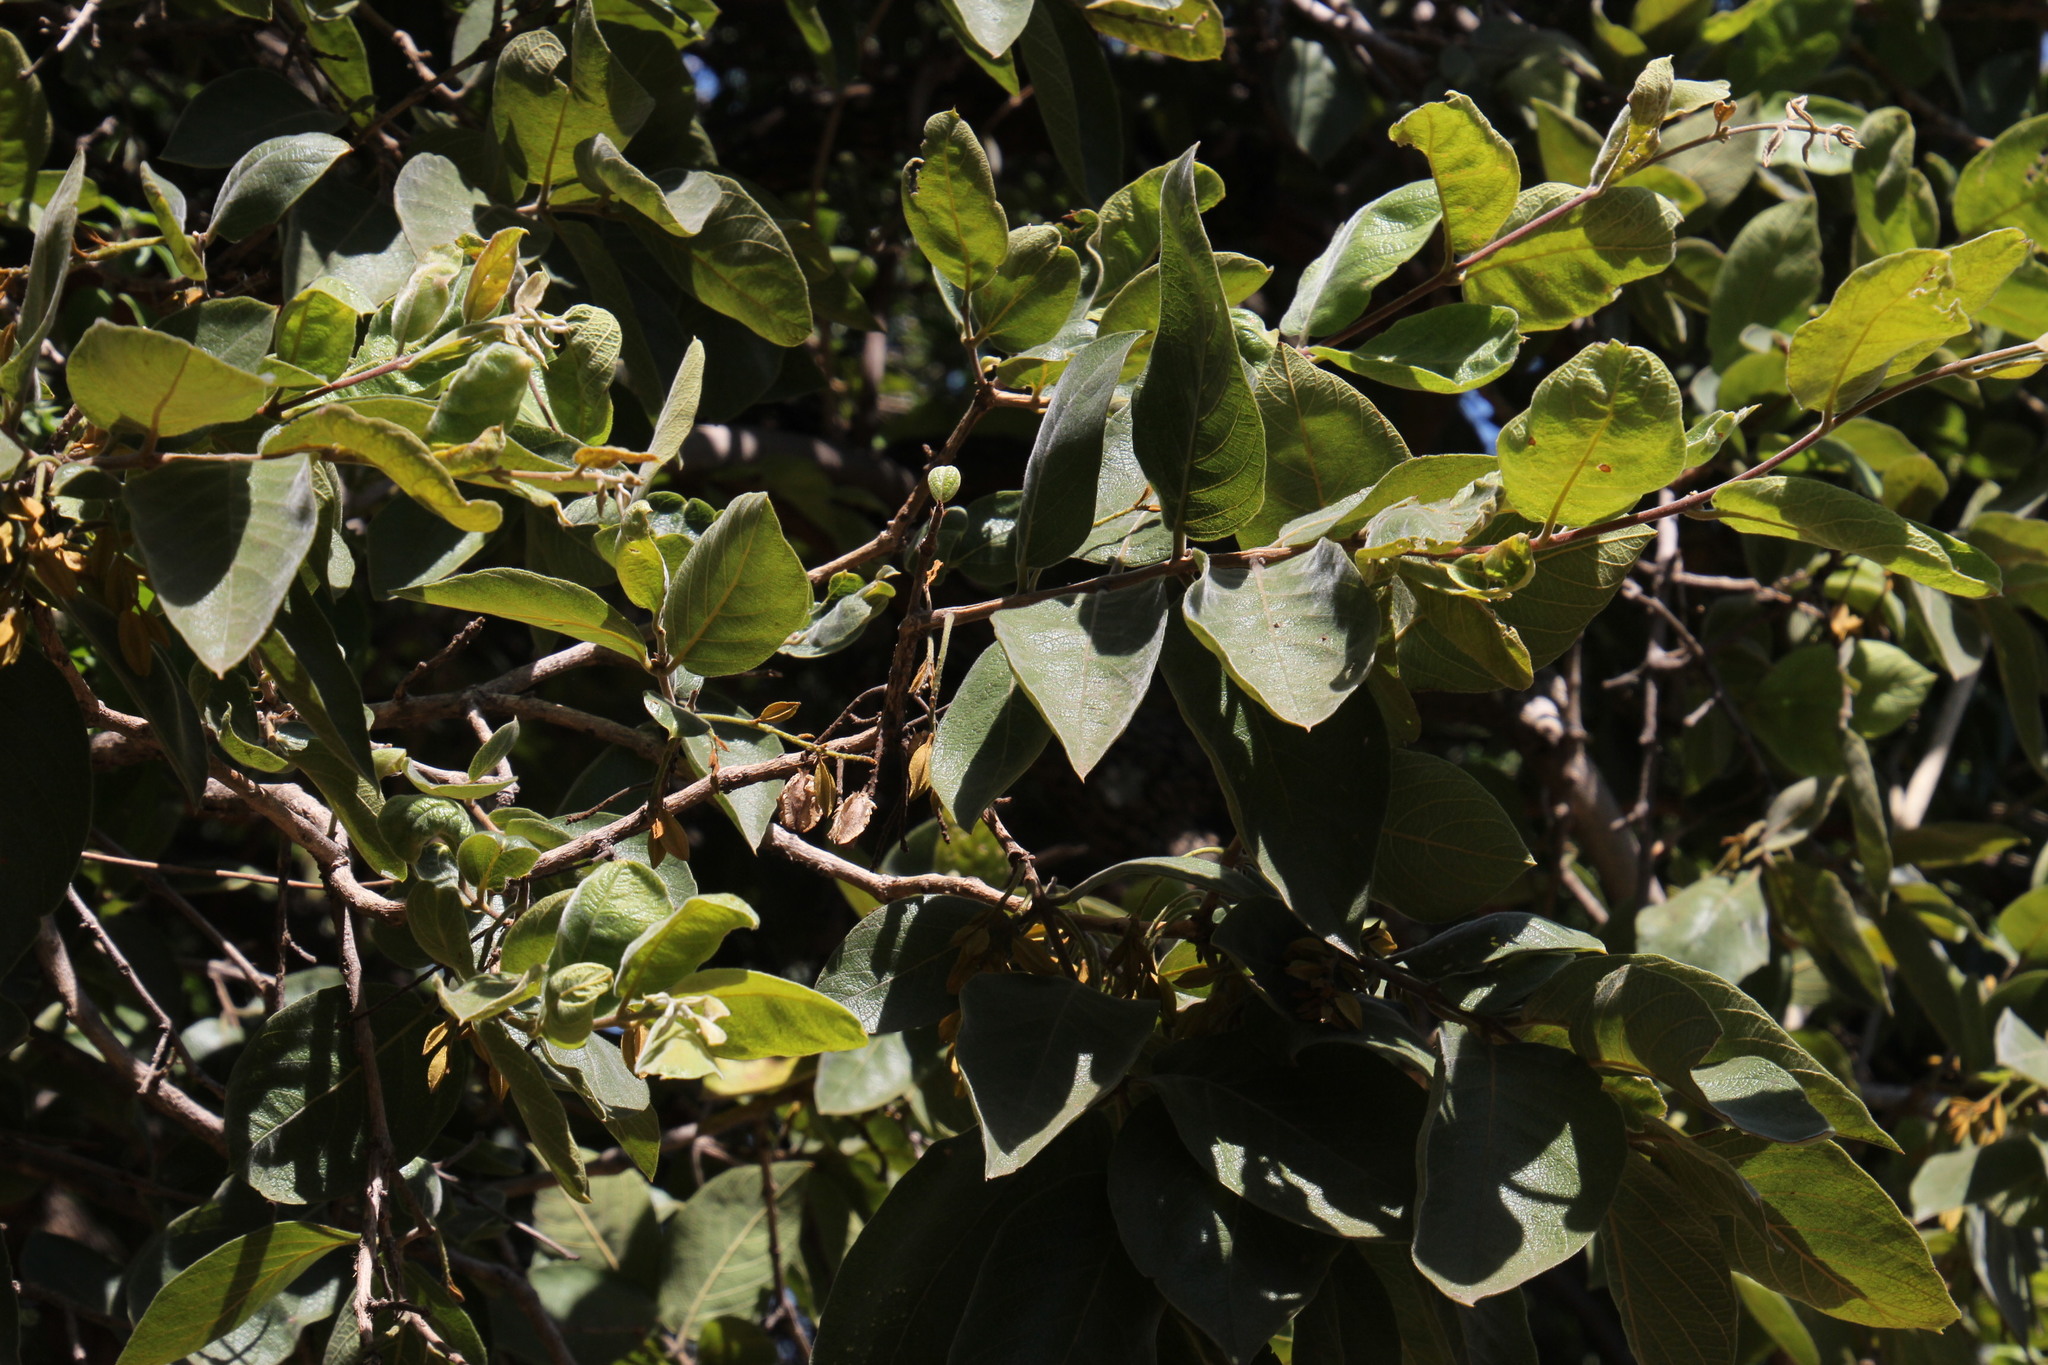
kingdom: Plantae
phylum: Tracheophyta
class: Magnoliopsida
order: Myrtales
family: Combretaceae
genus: Combretum
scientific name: Combretum molle
